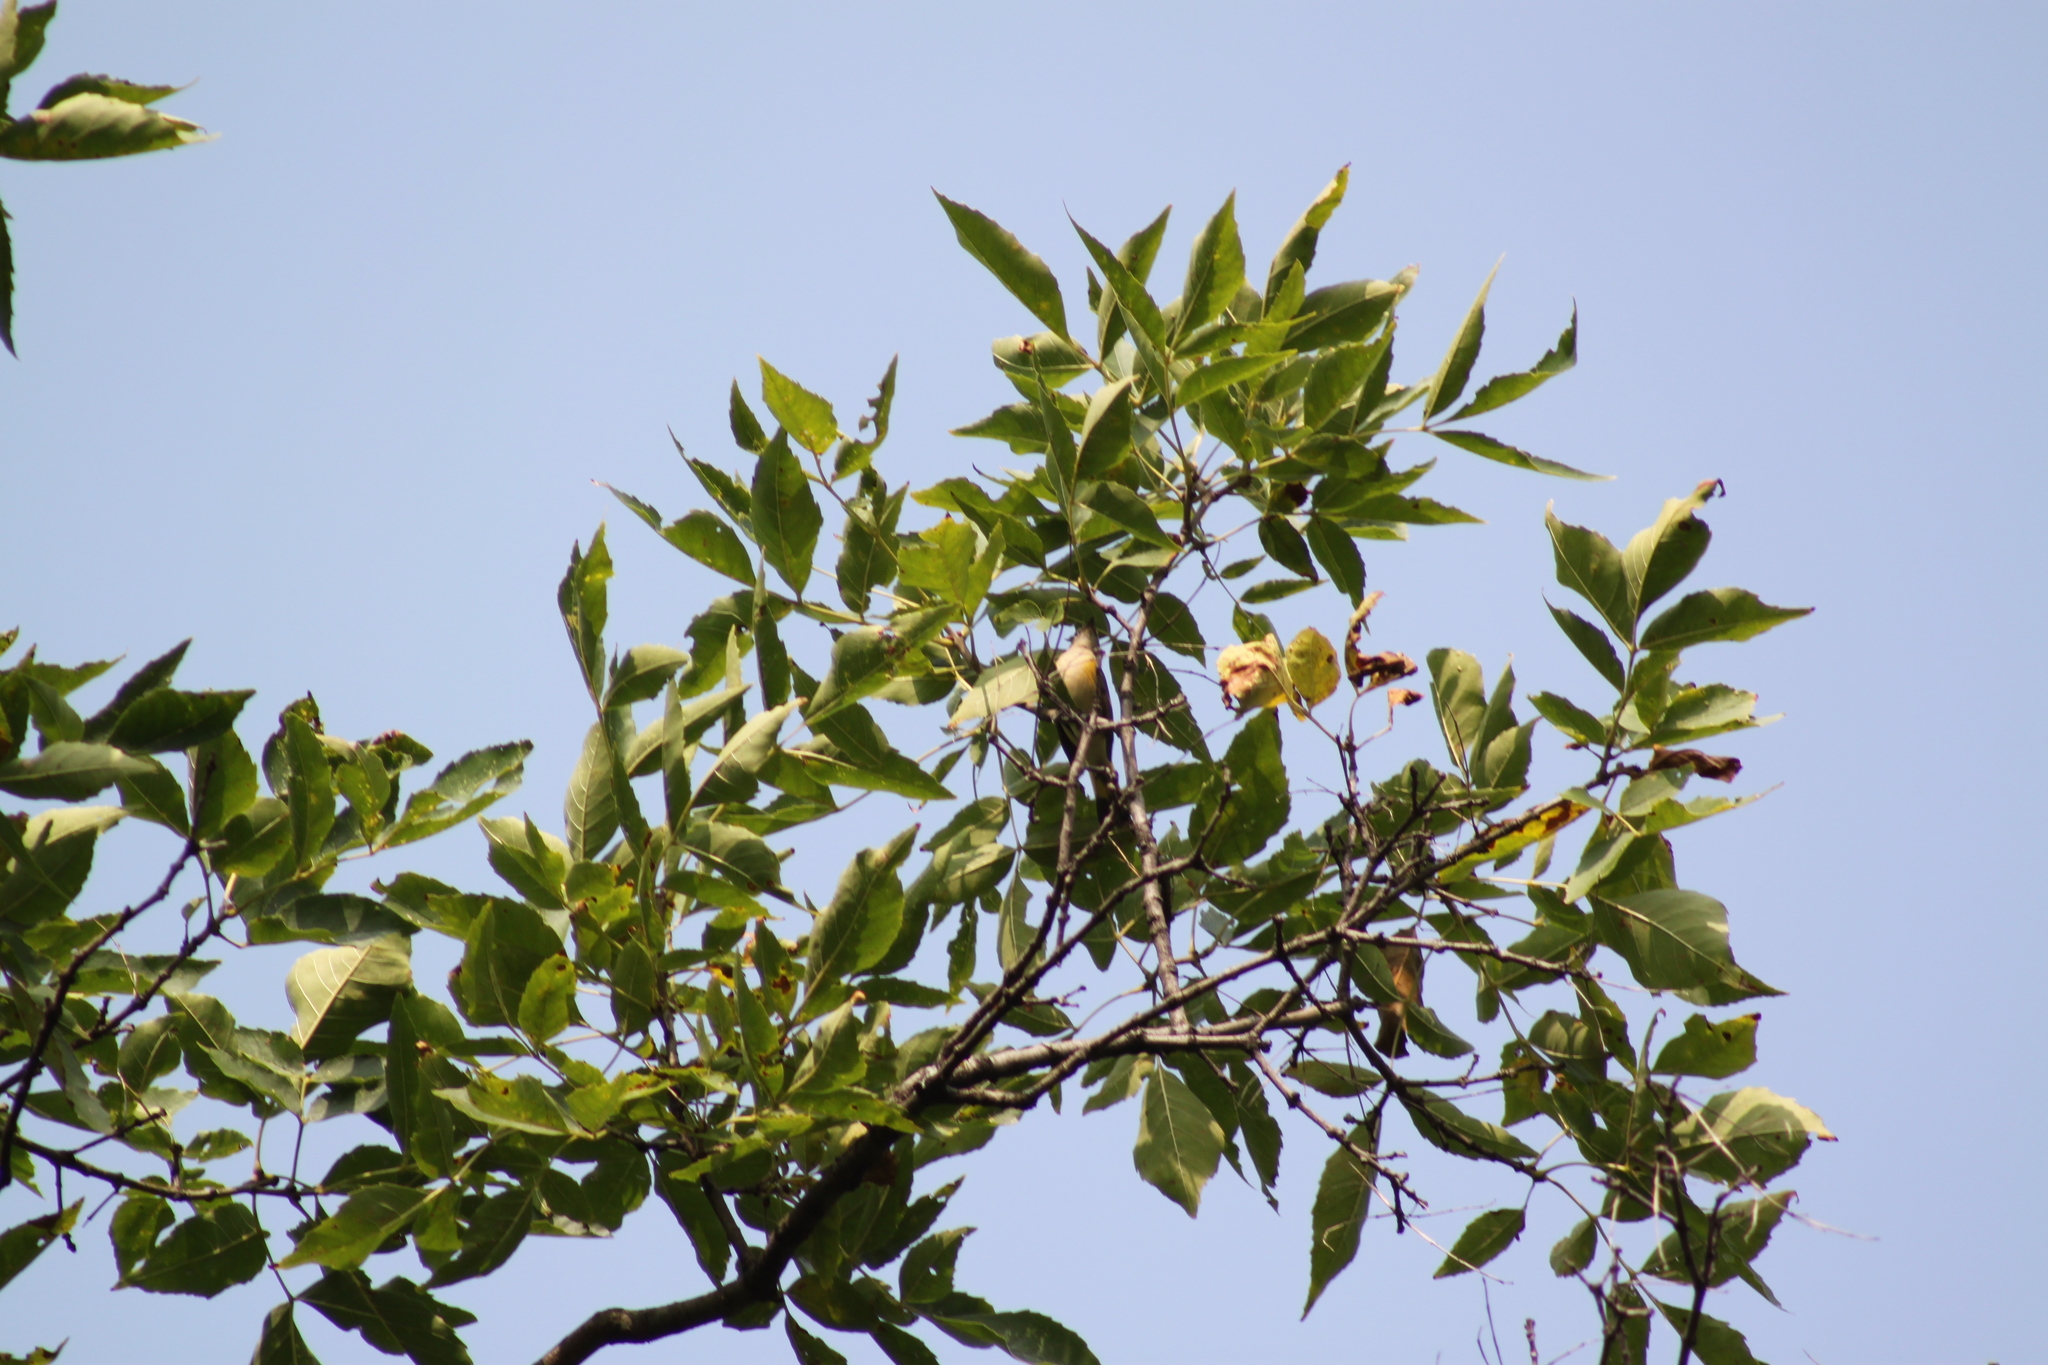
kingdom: Animalia
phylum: Chordata
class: Aves
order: Passeriformes
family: Parulidae
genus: Setophaga
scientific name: Setophaga ruticilla
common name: American redstart
